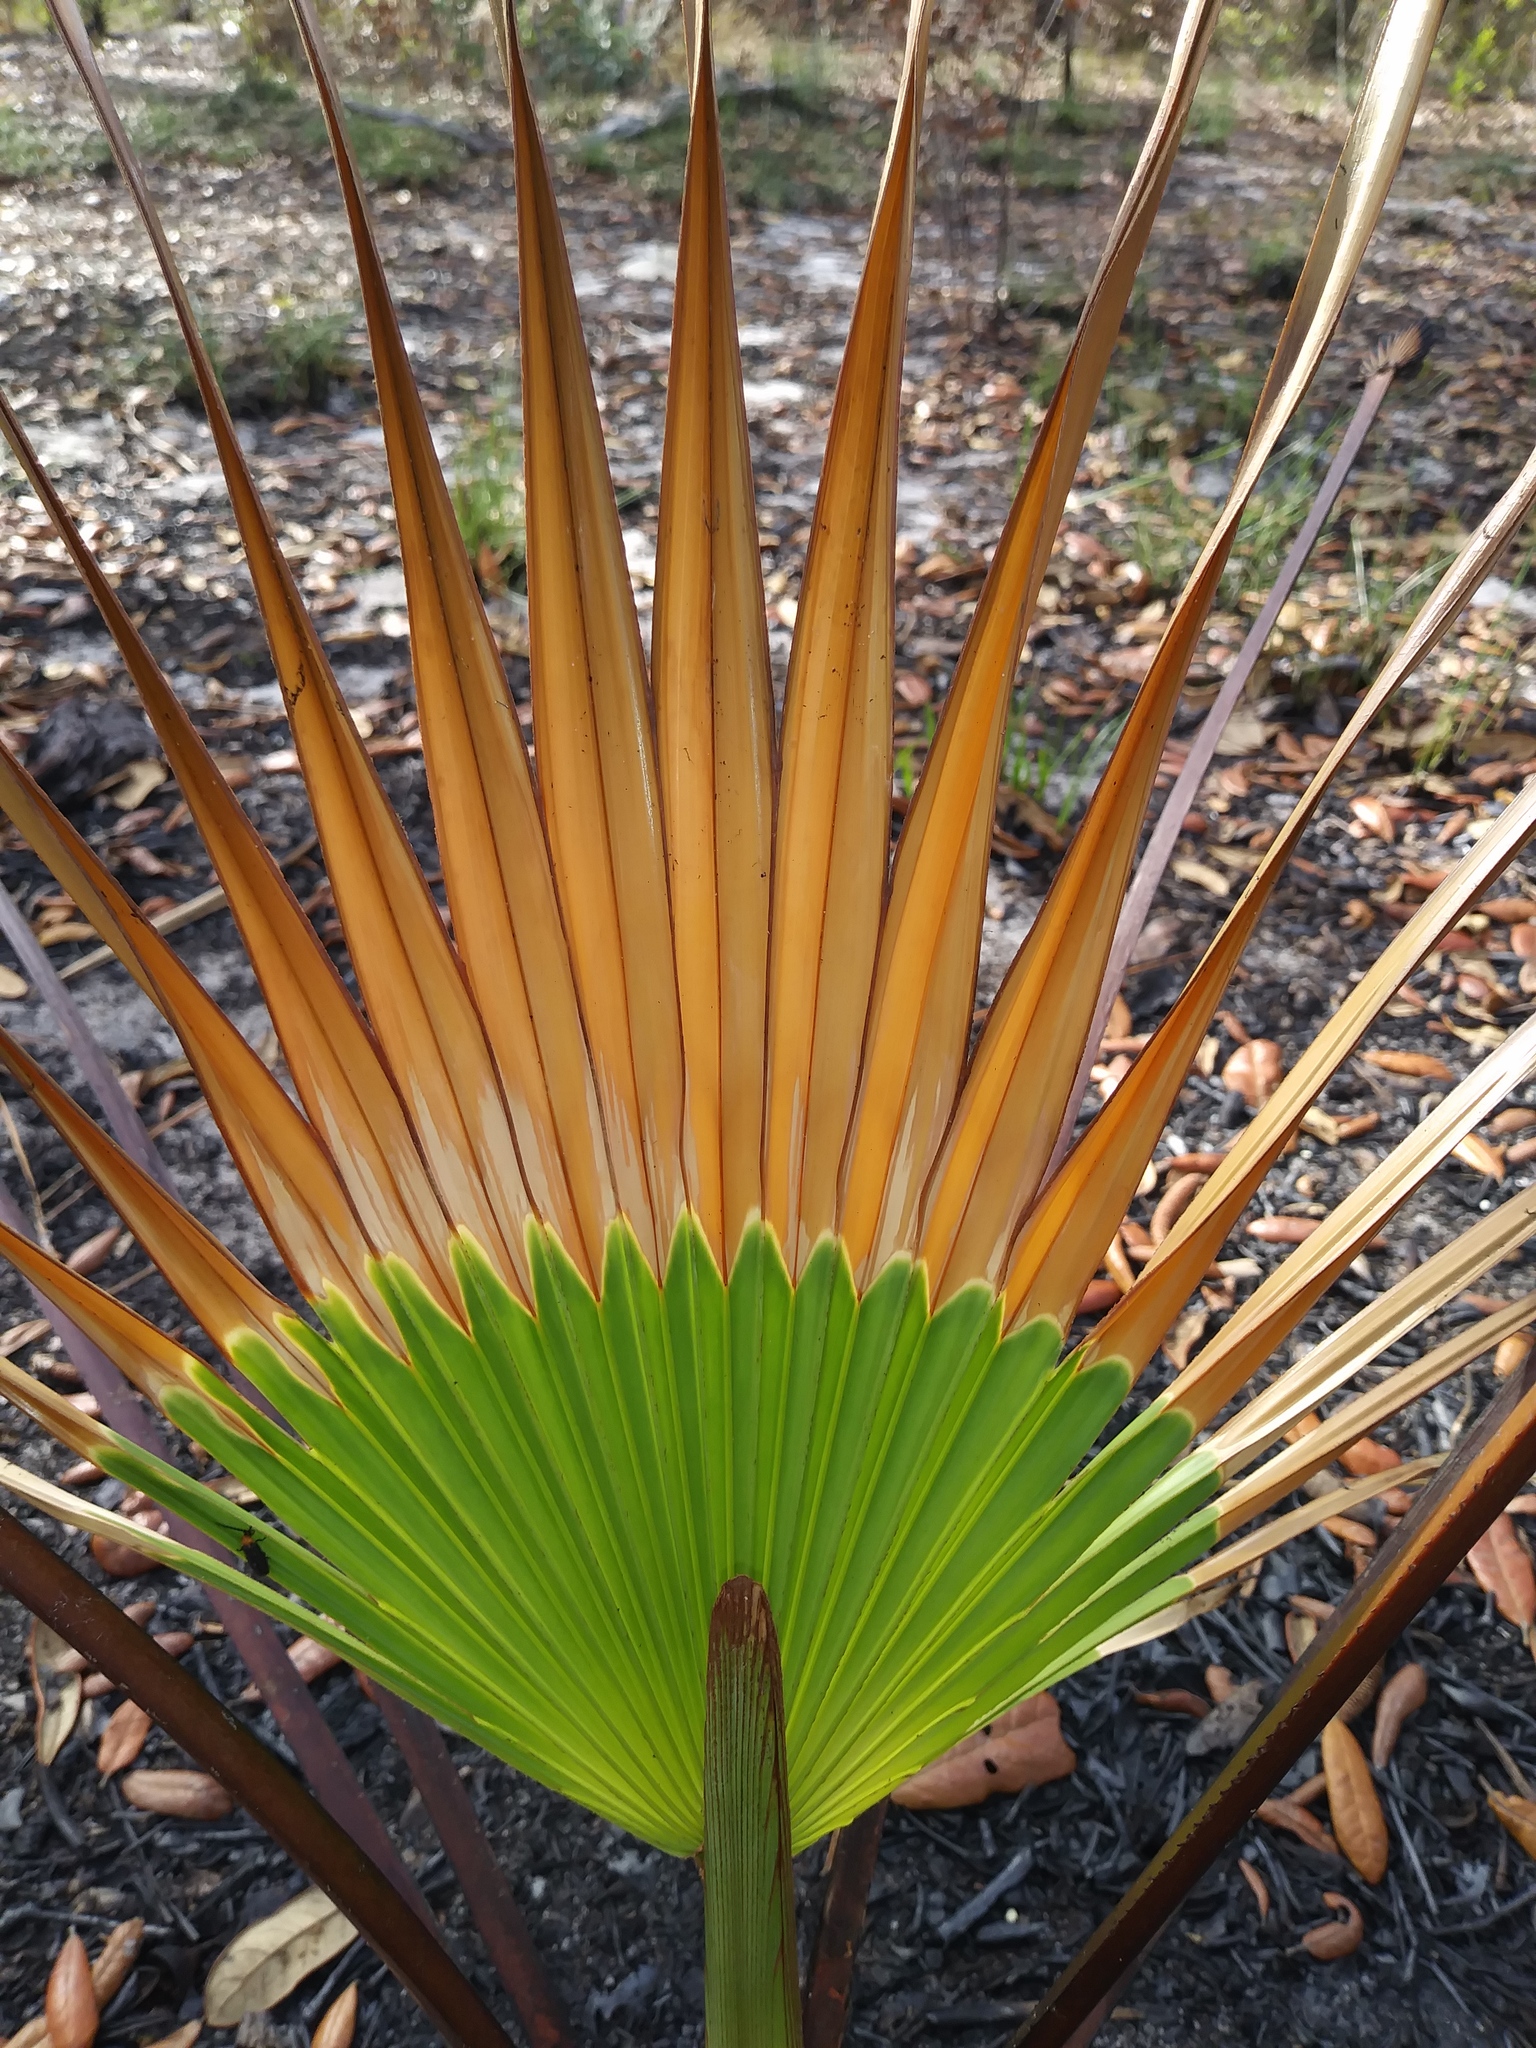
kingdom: Plantae
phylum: Tracheophyta
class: Liliopsida
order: Arecales
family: Arecaceae
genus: Serenoa
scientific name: Serenoa repens
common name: Saw-palmetto
